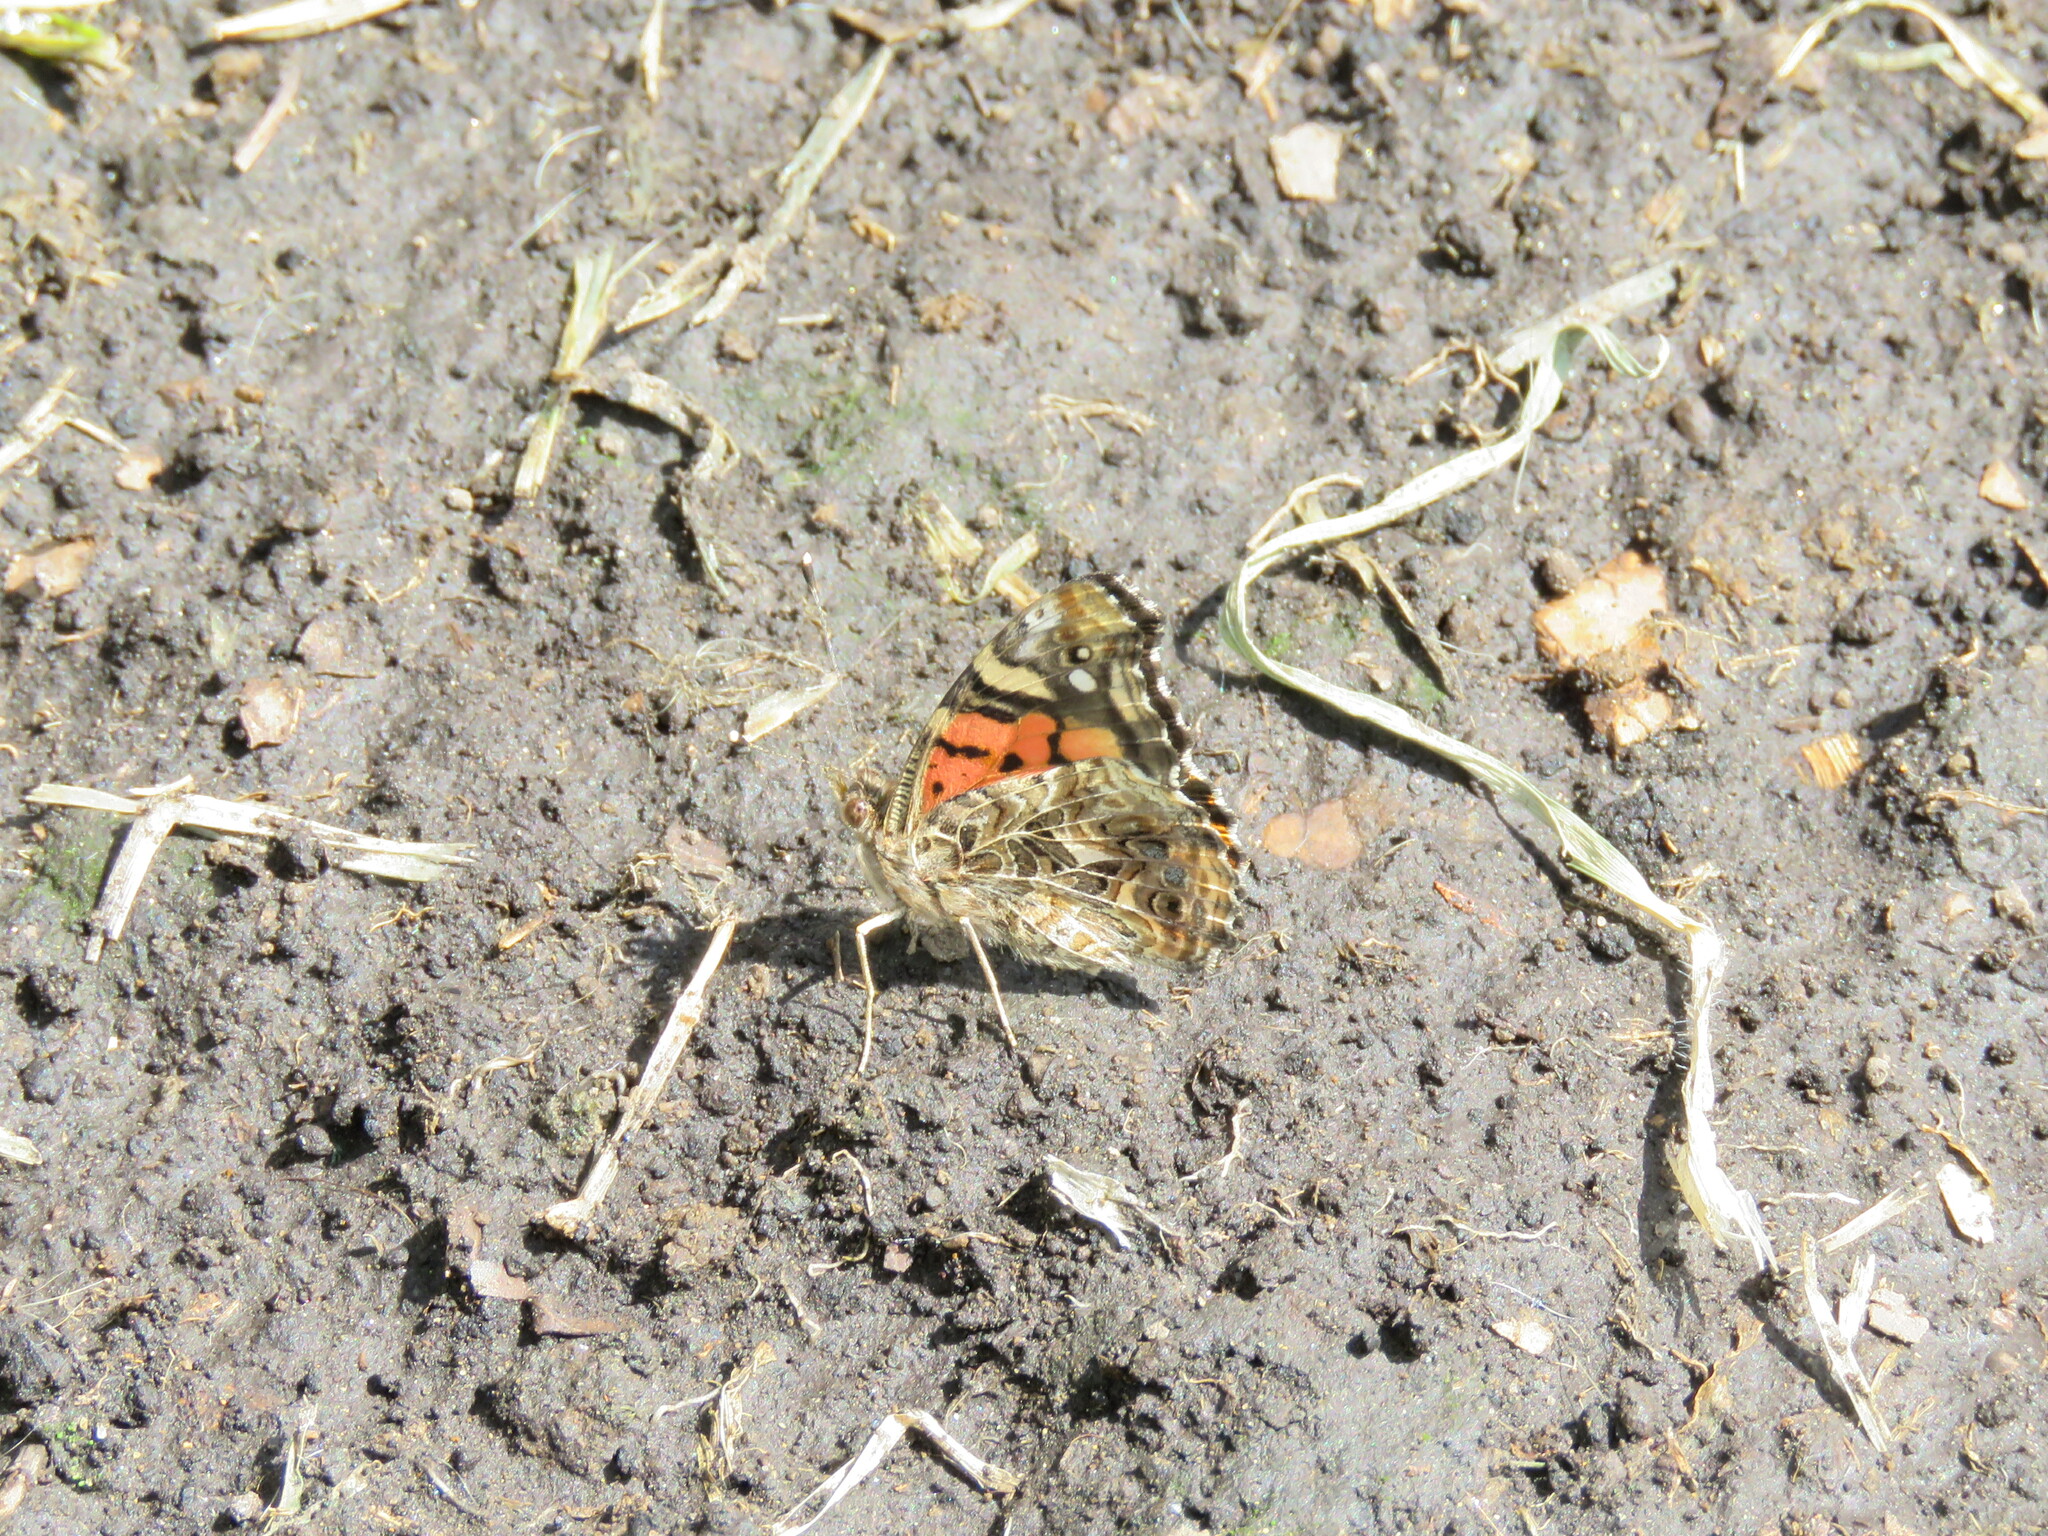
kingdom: Animalia
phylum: Arthropoda
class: Insecta
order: Lepidoptera
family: Nymphalidae
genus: Vanessa
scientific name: Vanessa carye
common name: Subtropical lady
